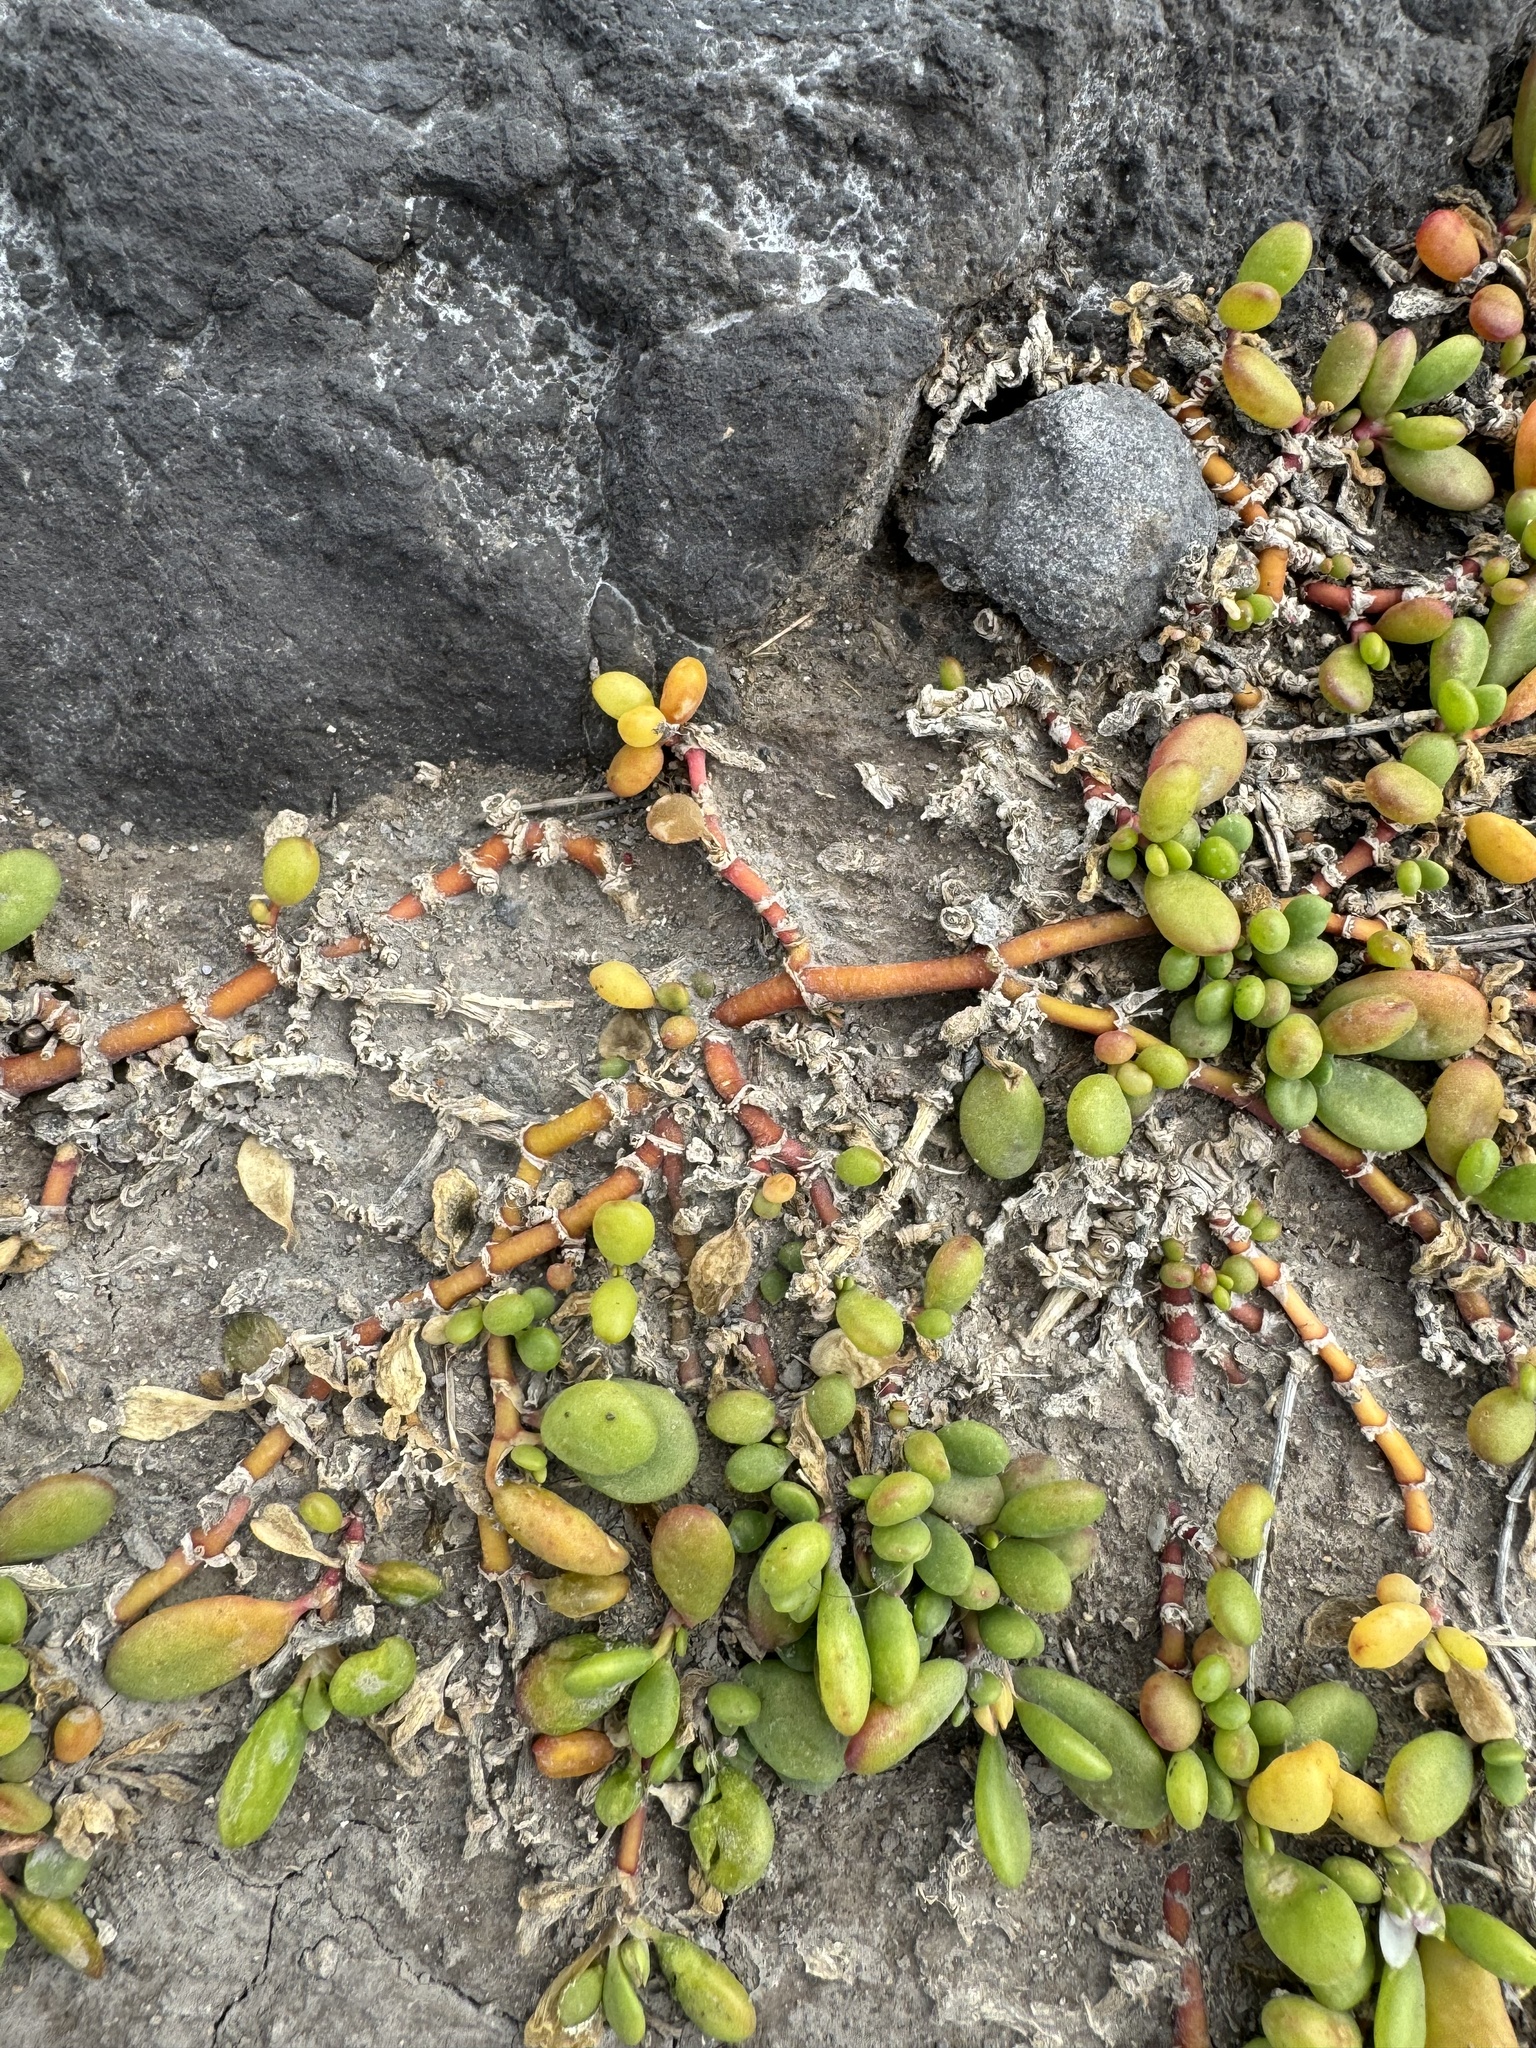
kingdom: Plantae
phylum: Tracheophyta
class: Magnoliopsida
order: Caryophyllales
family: Aizoaceae
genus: Sesuvium
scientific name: Sesuvium portulacastrum
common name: Sea-purslane
